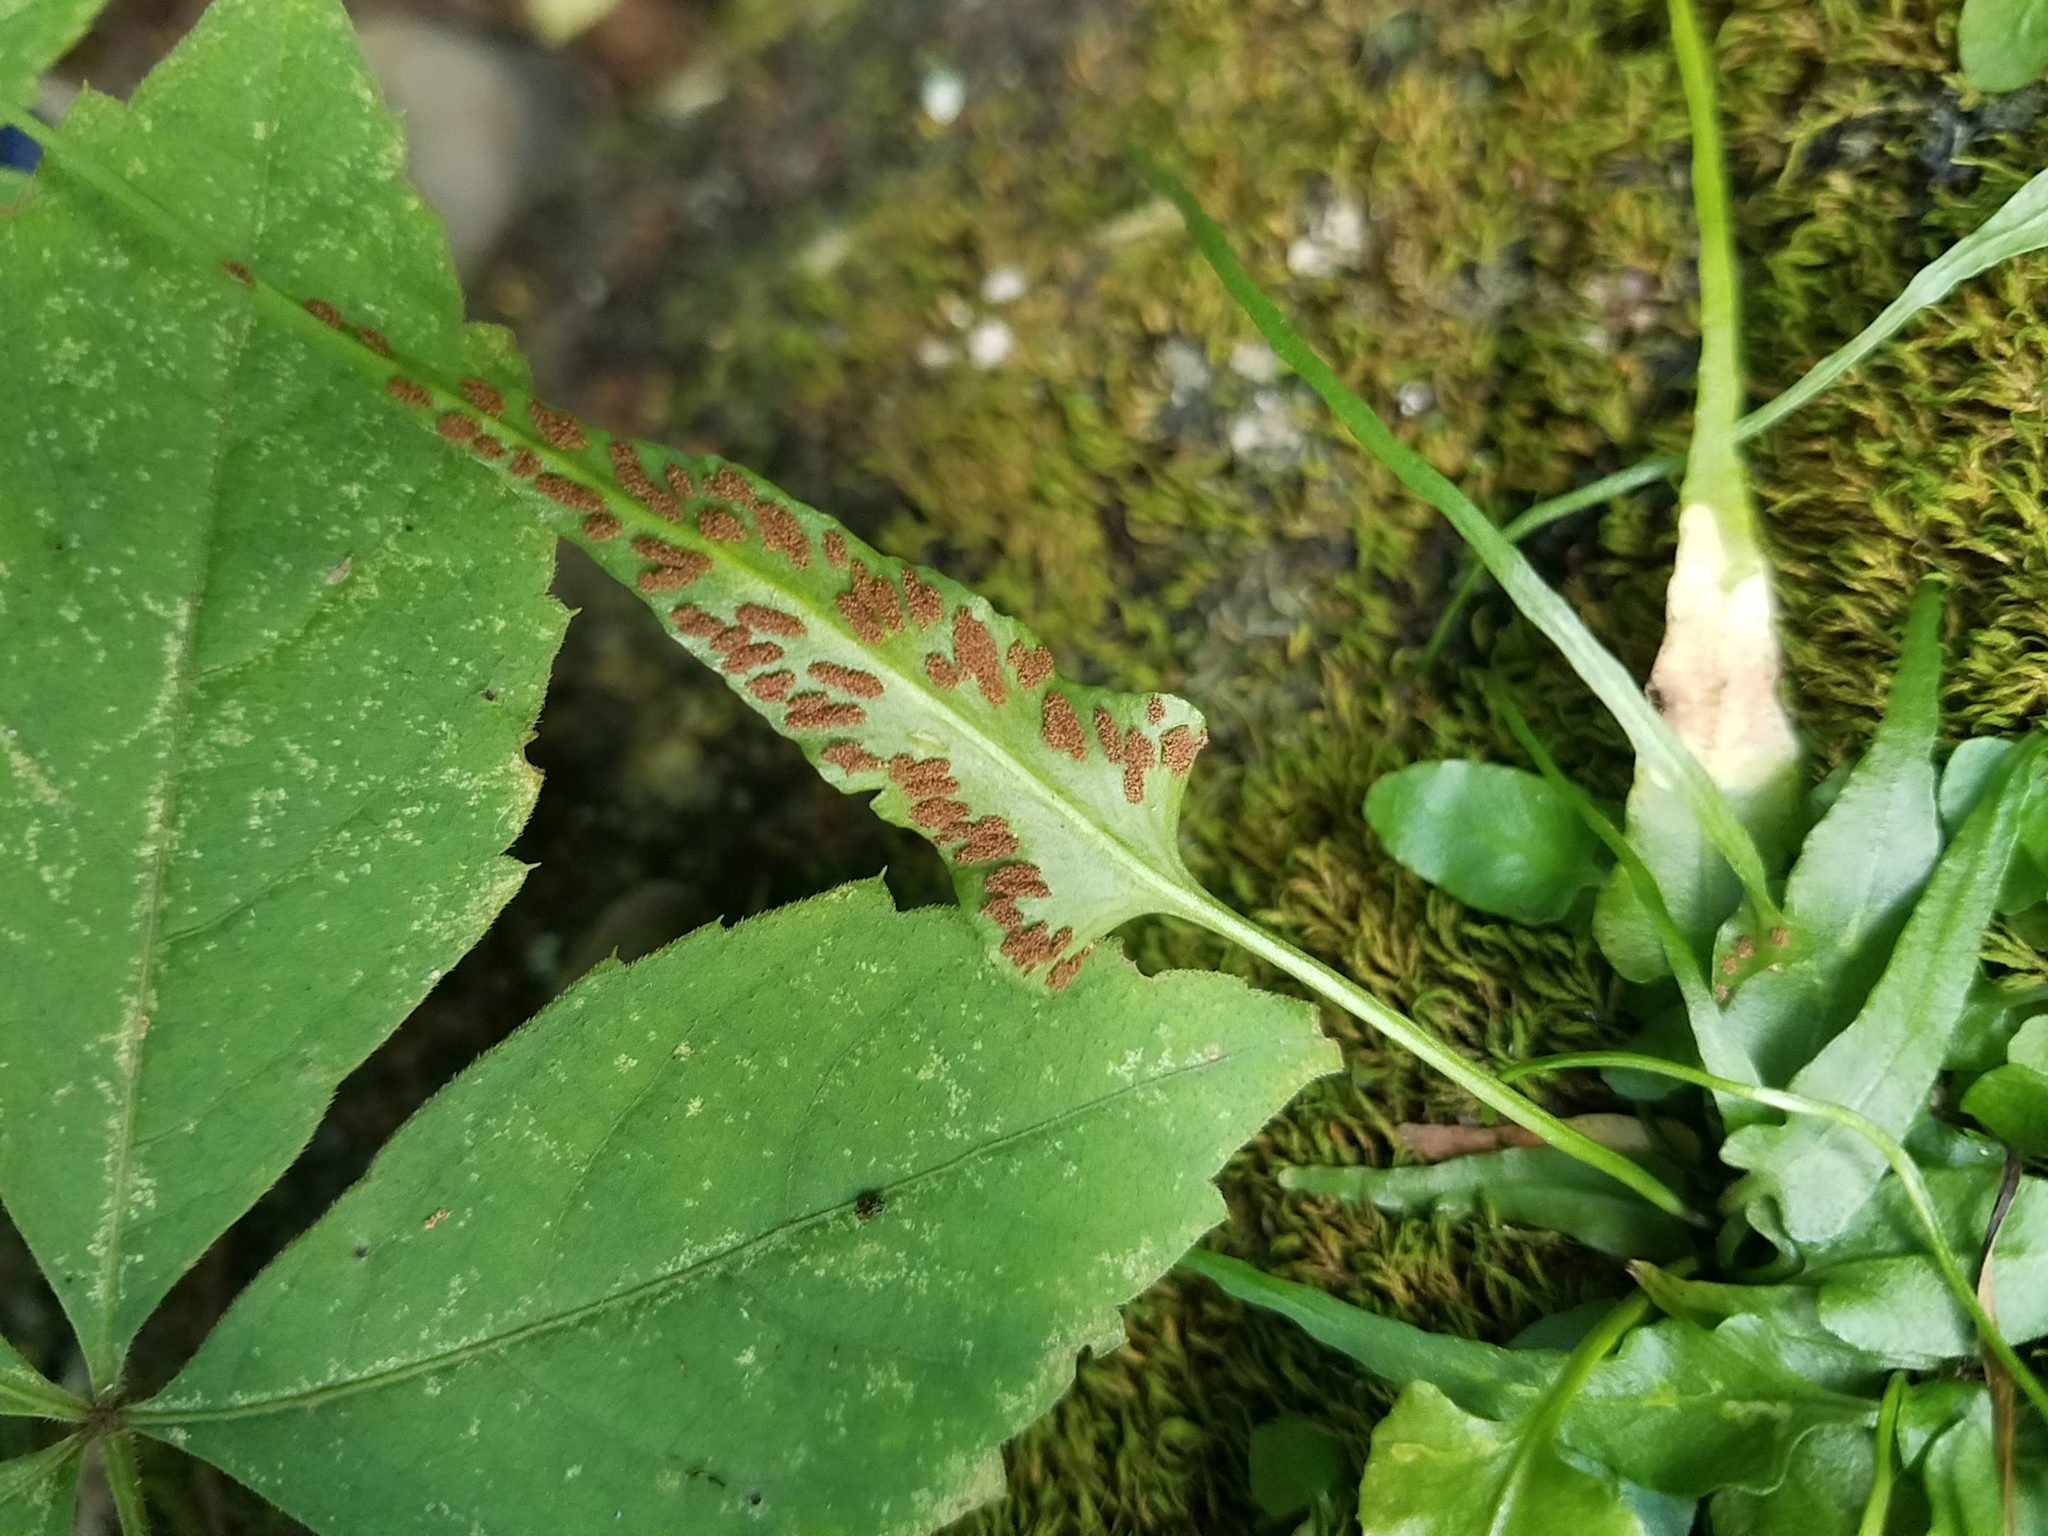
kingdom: Plantae
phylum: Tracheophyta
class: Polypodiopsida
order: Polypodiales
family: Aspleniaceae
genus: Asplenium
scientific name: Asplenium rhizophyllum
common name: Walking fern
